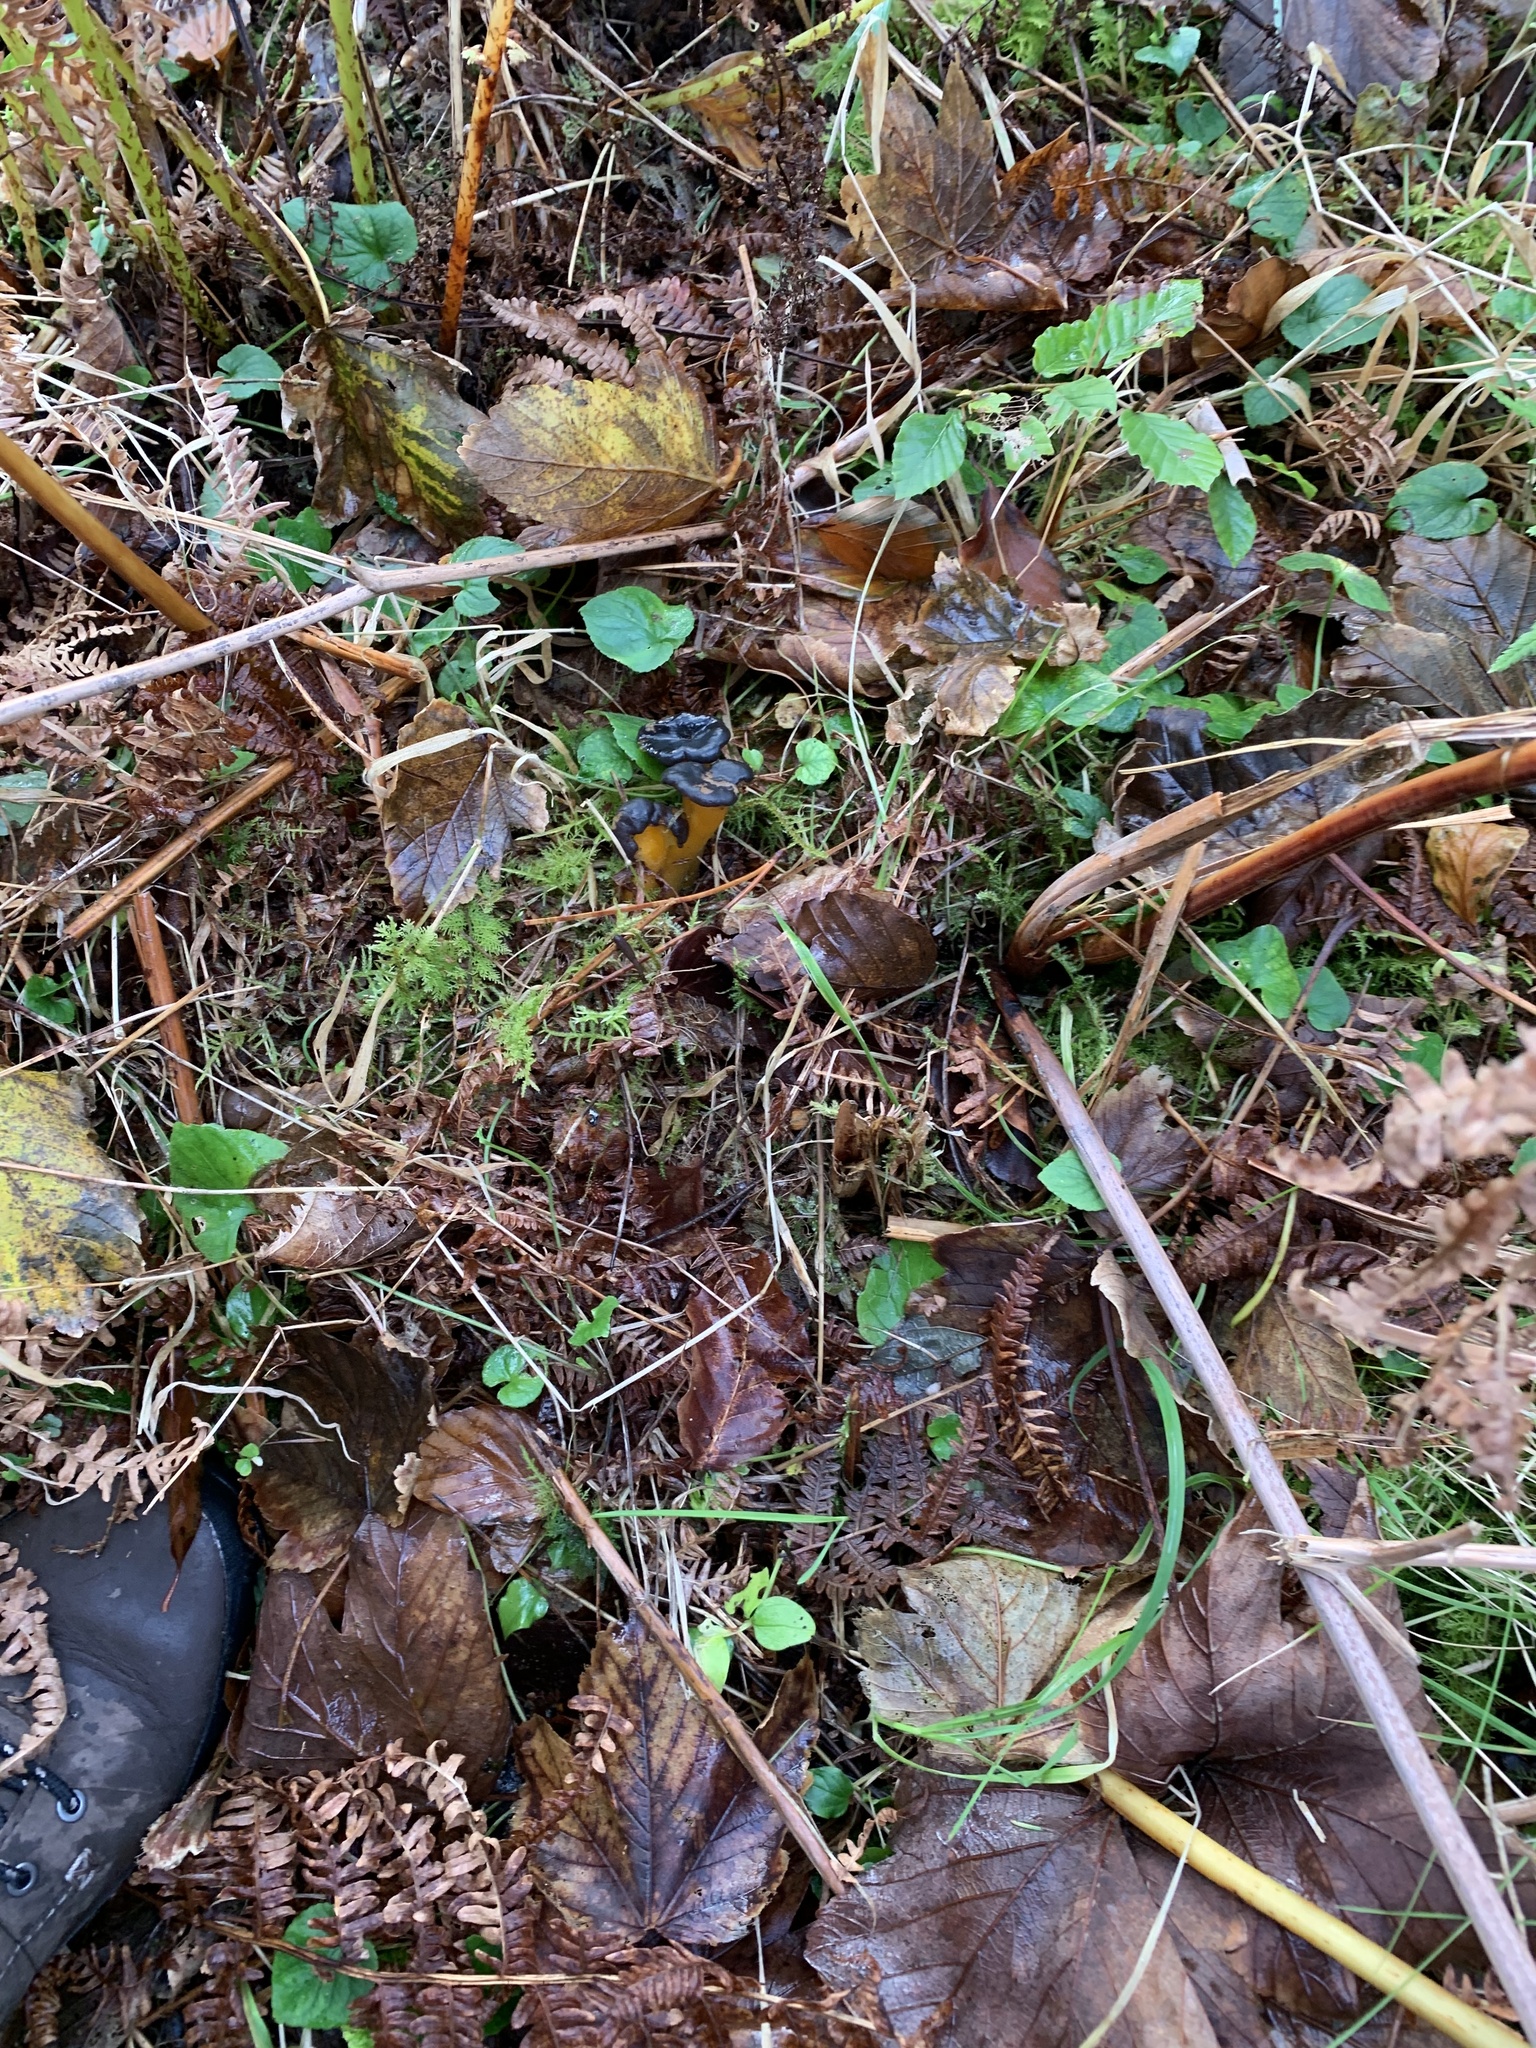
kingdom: Fungi
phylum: Ascomycota
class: Leotiomycetes
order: Leotiales
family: Leotiaceae
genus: Leotia
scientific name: Leotia lubrica
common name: Jellybaby
